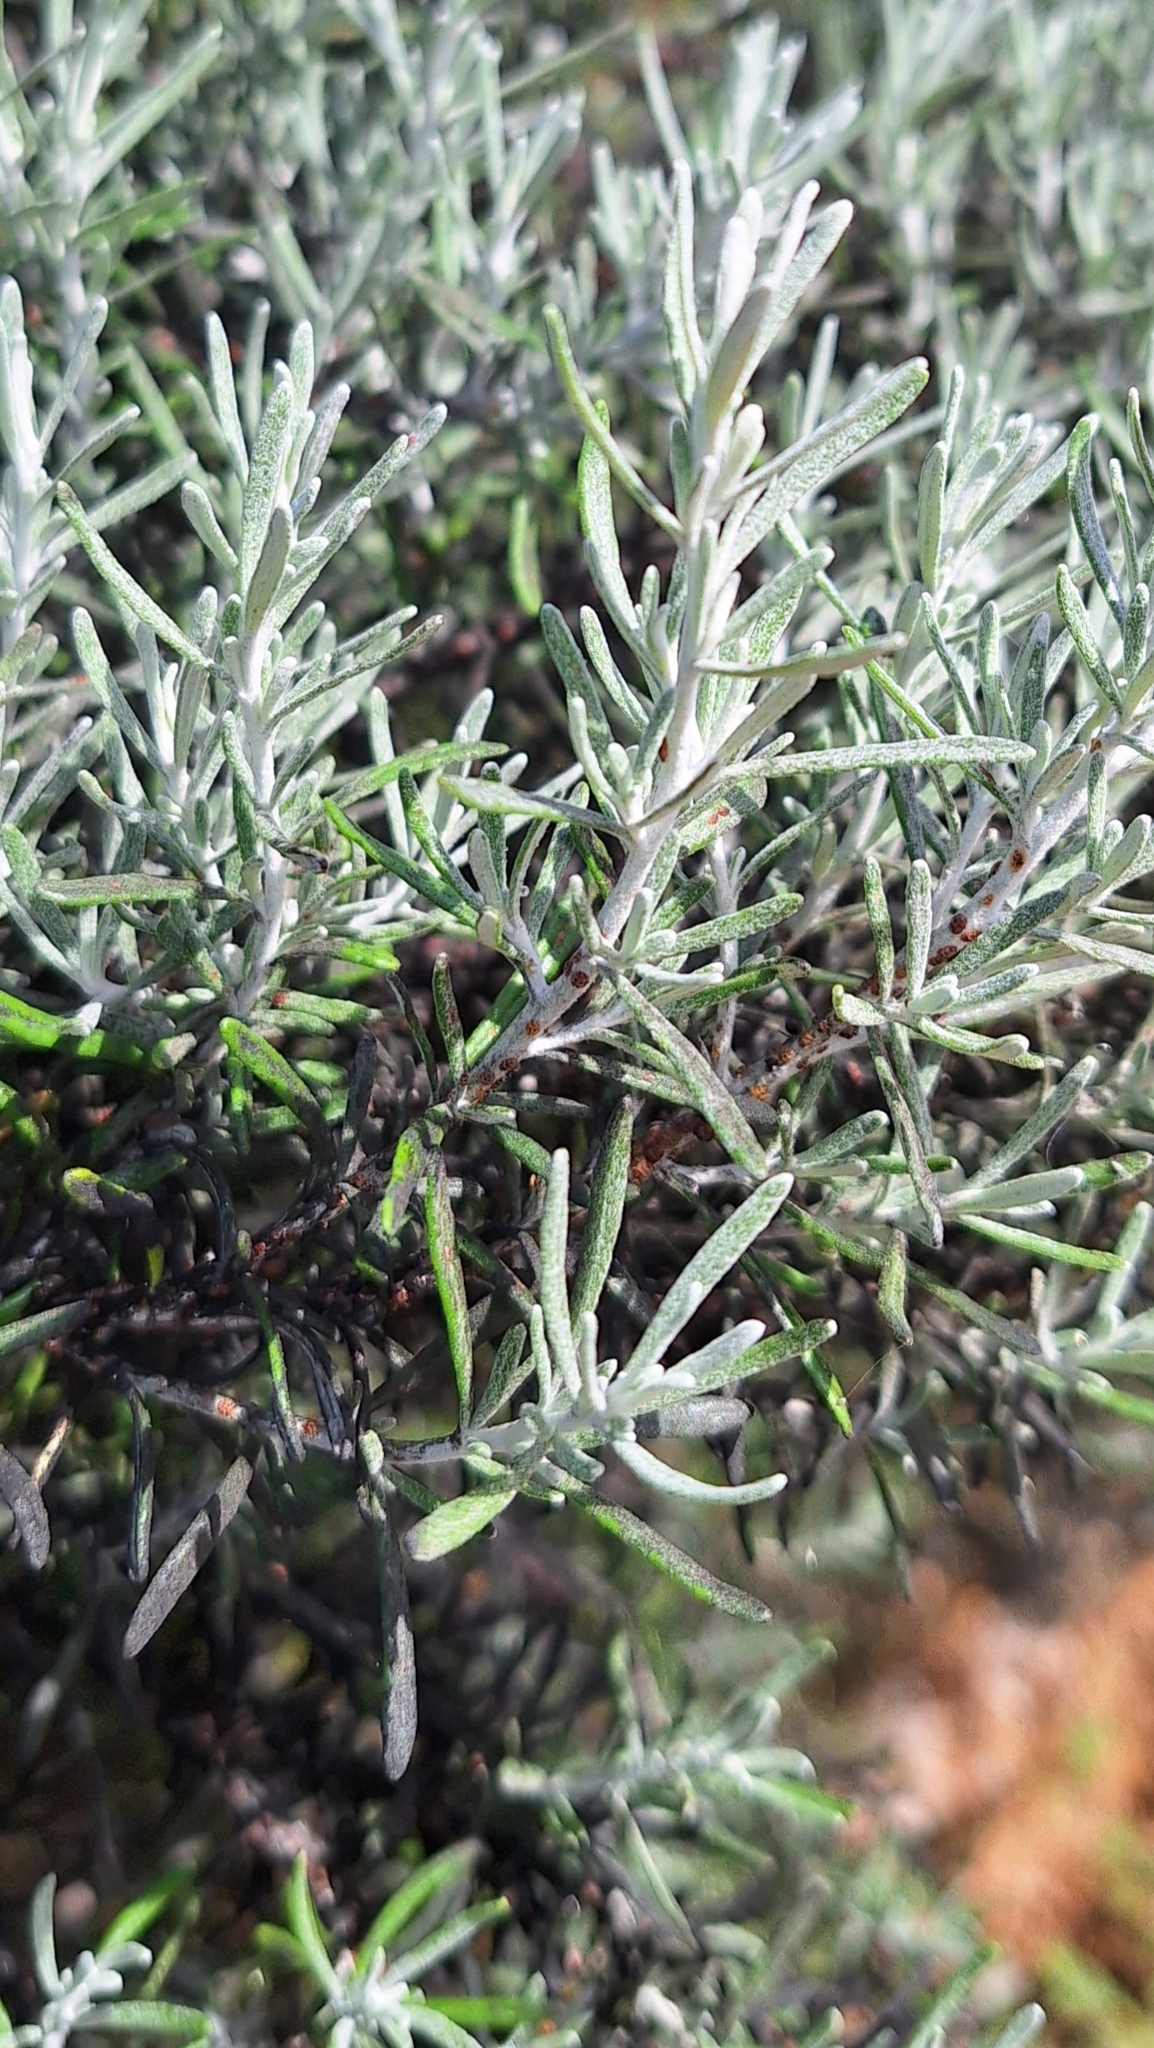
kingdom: Plantae
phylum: Tracheophyta
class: Magnoliopsida
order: Asterales
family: Asteraceae
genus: Olearia
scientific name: Olearia axillaris
